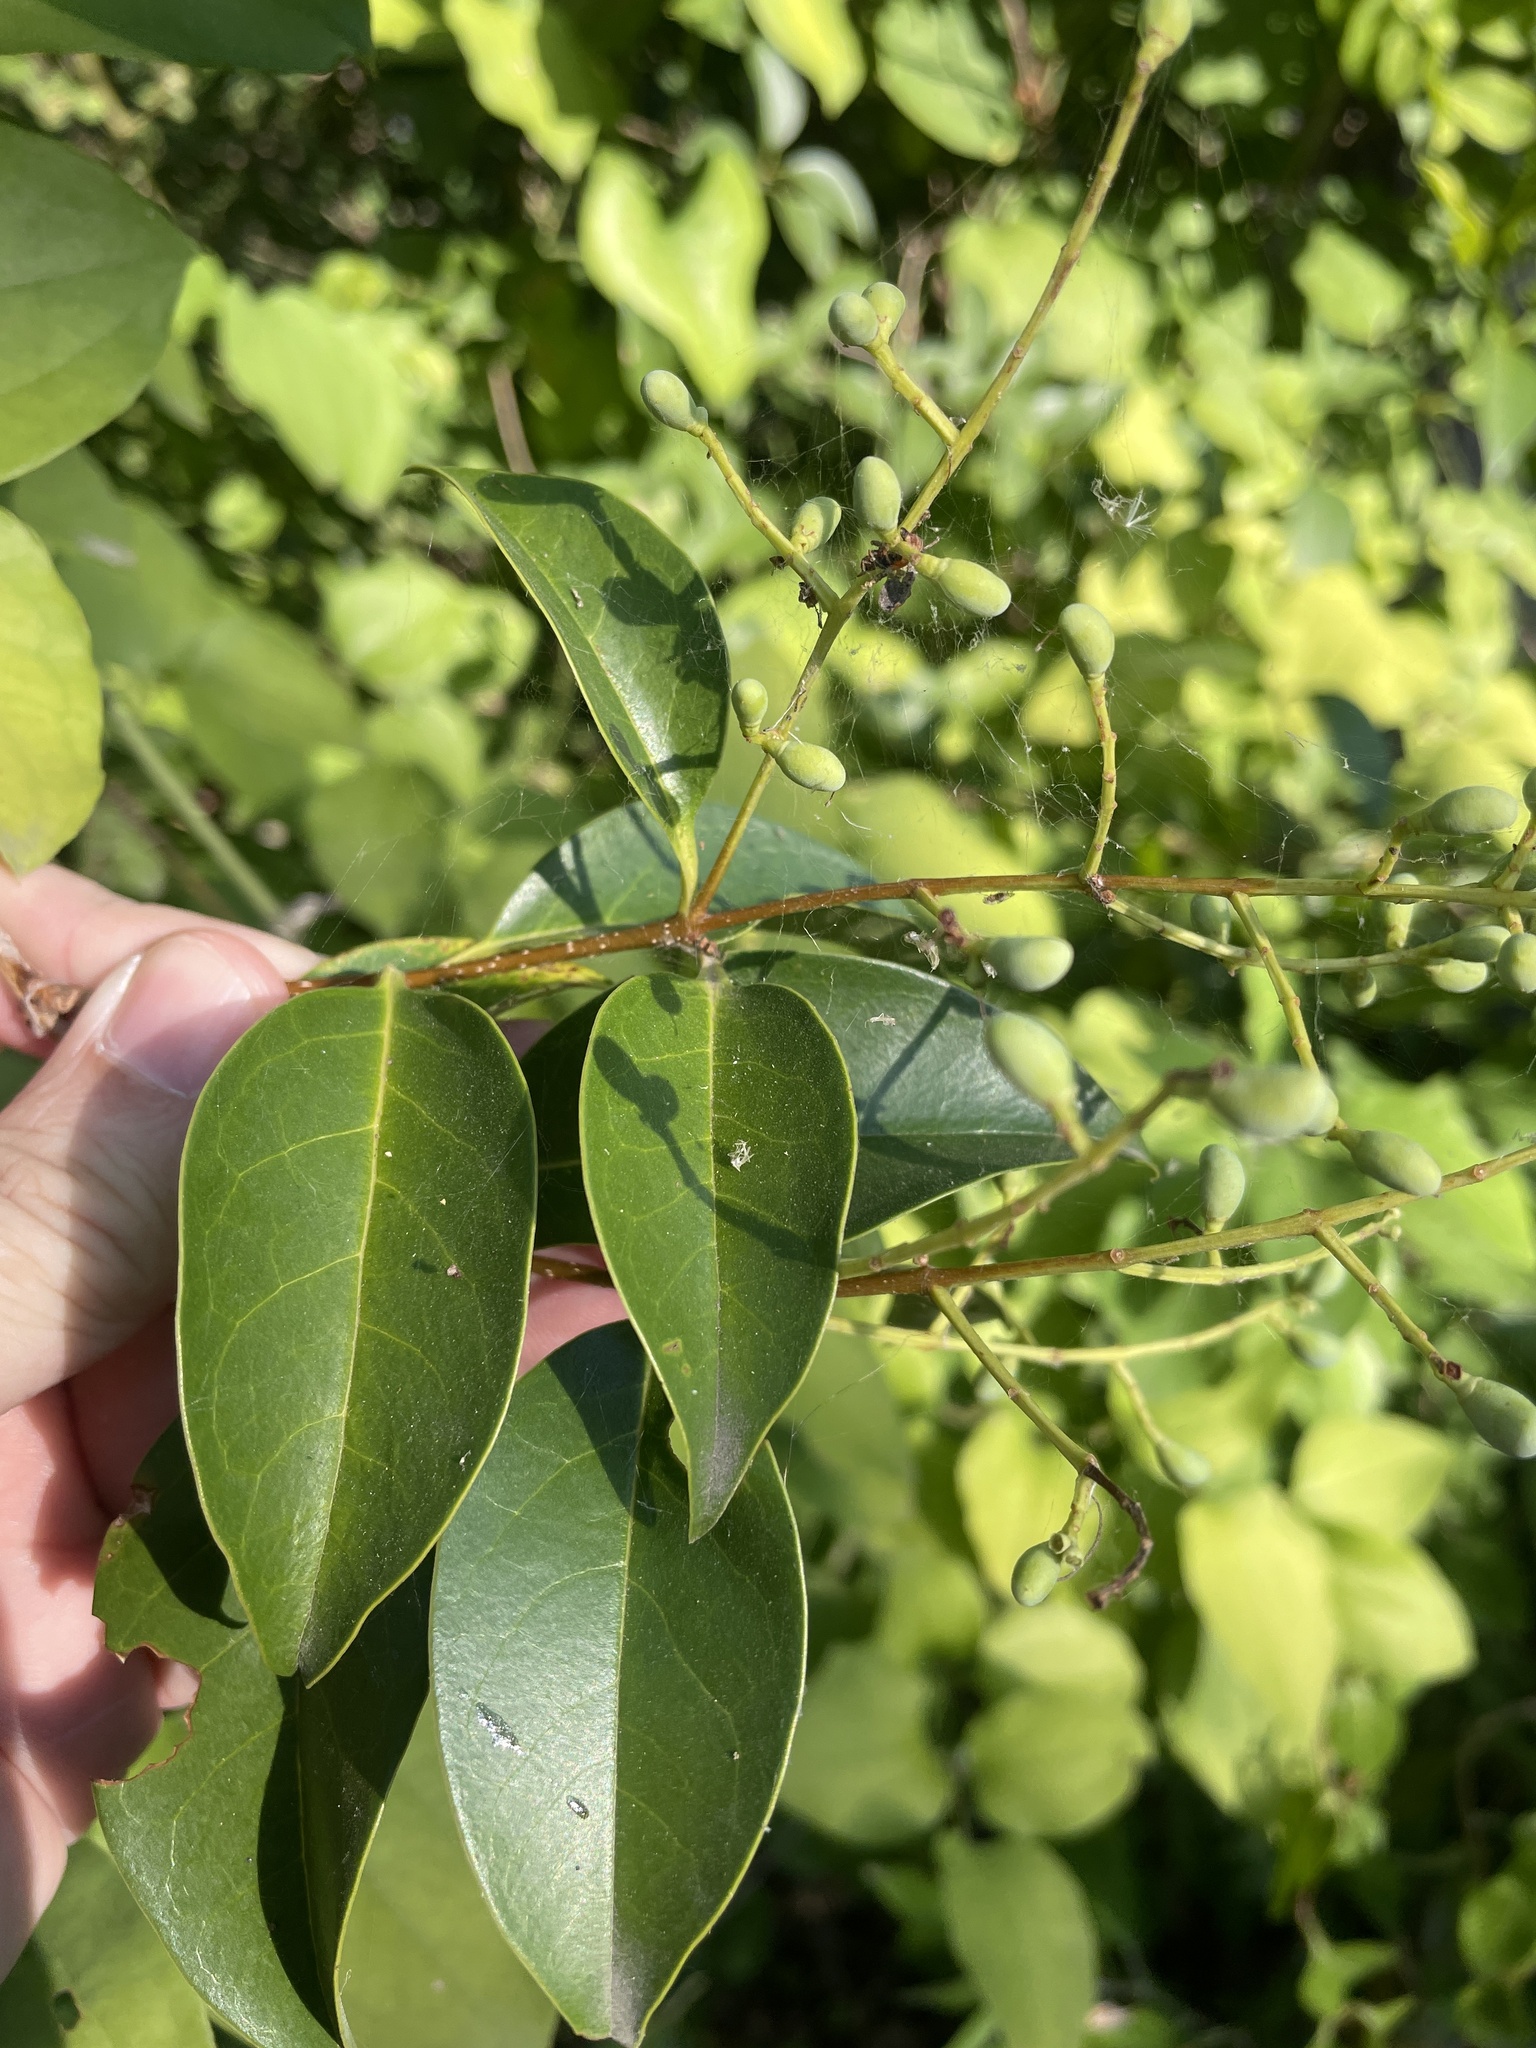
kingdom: Plantae
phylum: Tracheophyta
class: Magnoliopsida
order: Lamiales
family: Oleaceae
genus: Ligustrum
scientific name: Ligustrum lucidum
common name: Glossy privet
